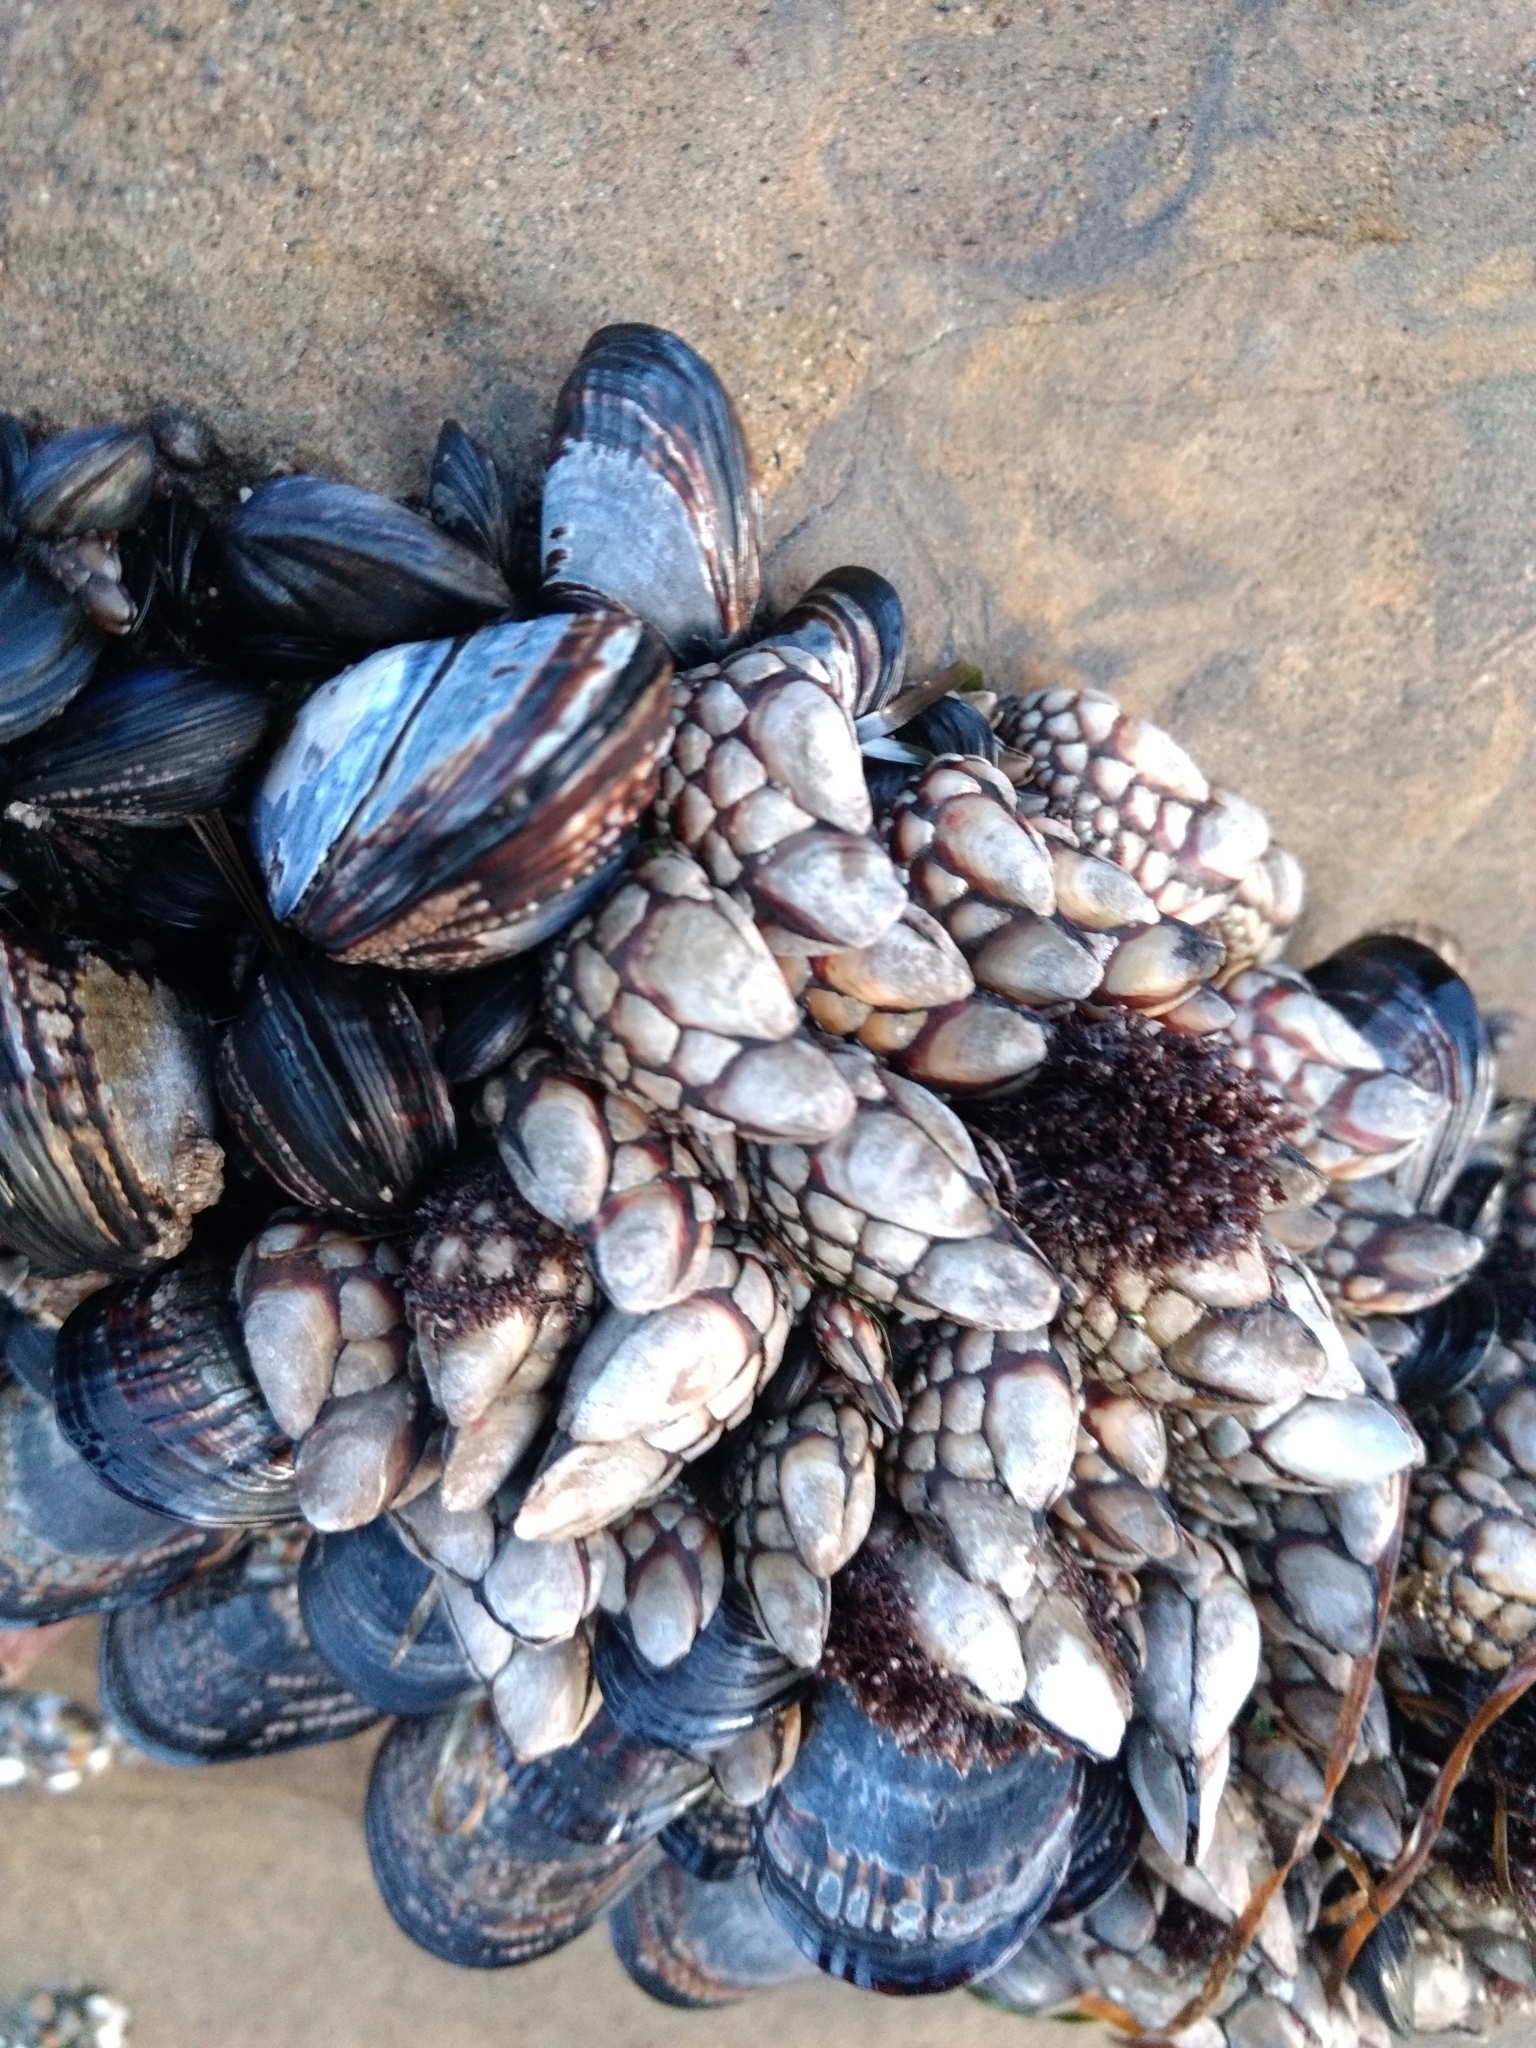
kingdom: Animalia
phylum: Arthropoda
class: Maxillopoda
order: Pedunculata
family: Pollicipedidae
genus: Pollicipes
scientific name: Pollicipes polymerus
